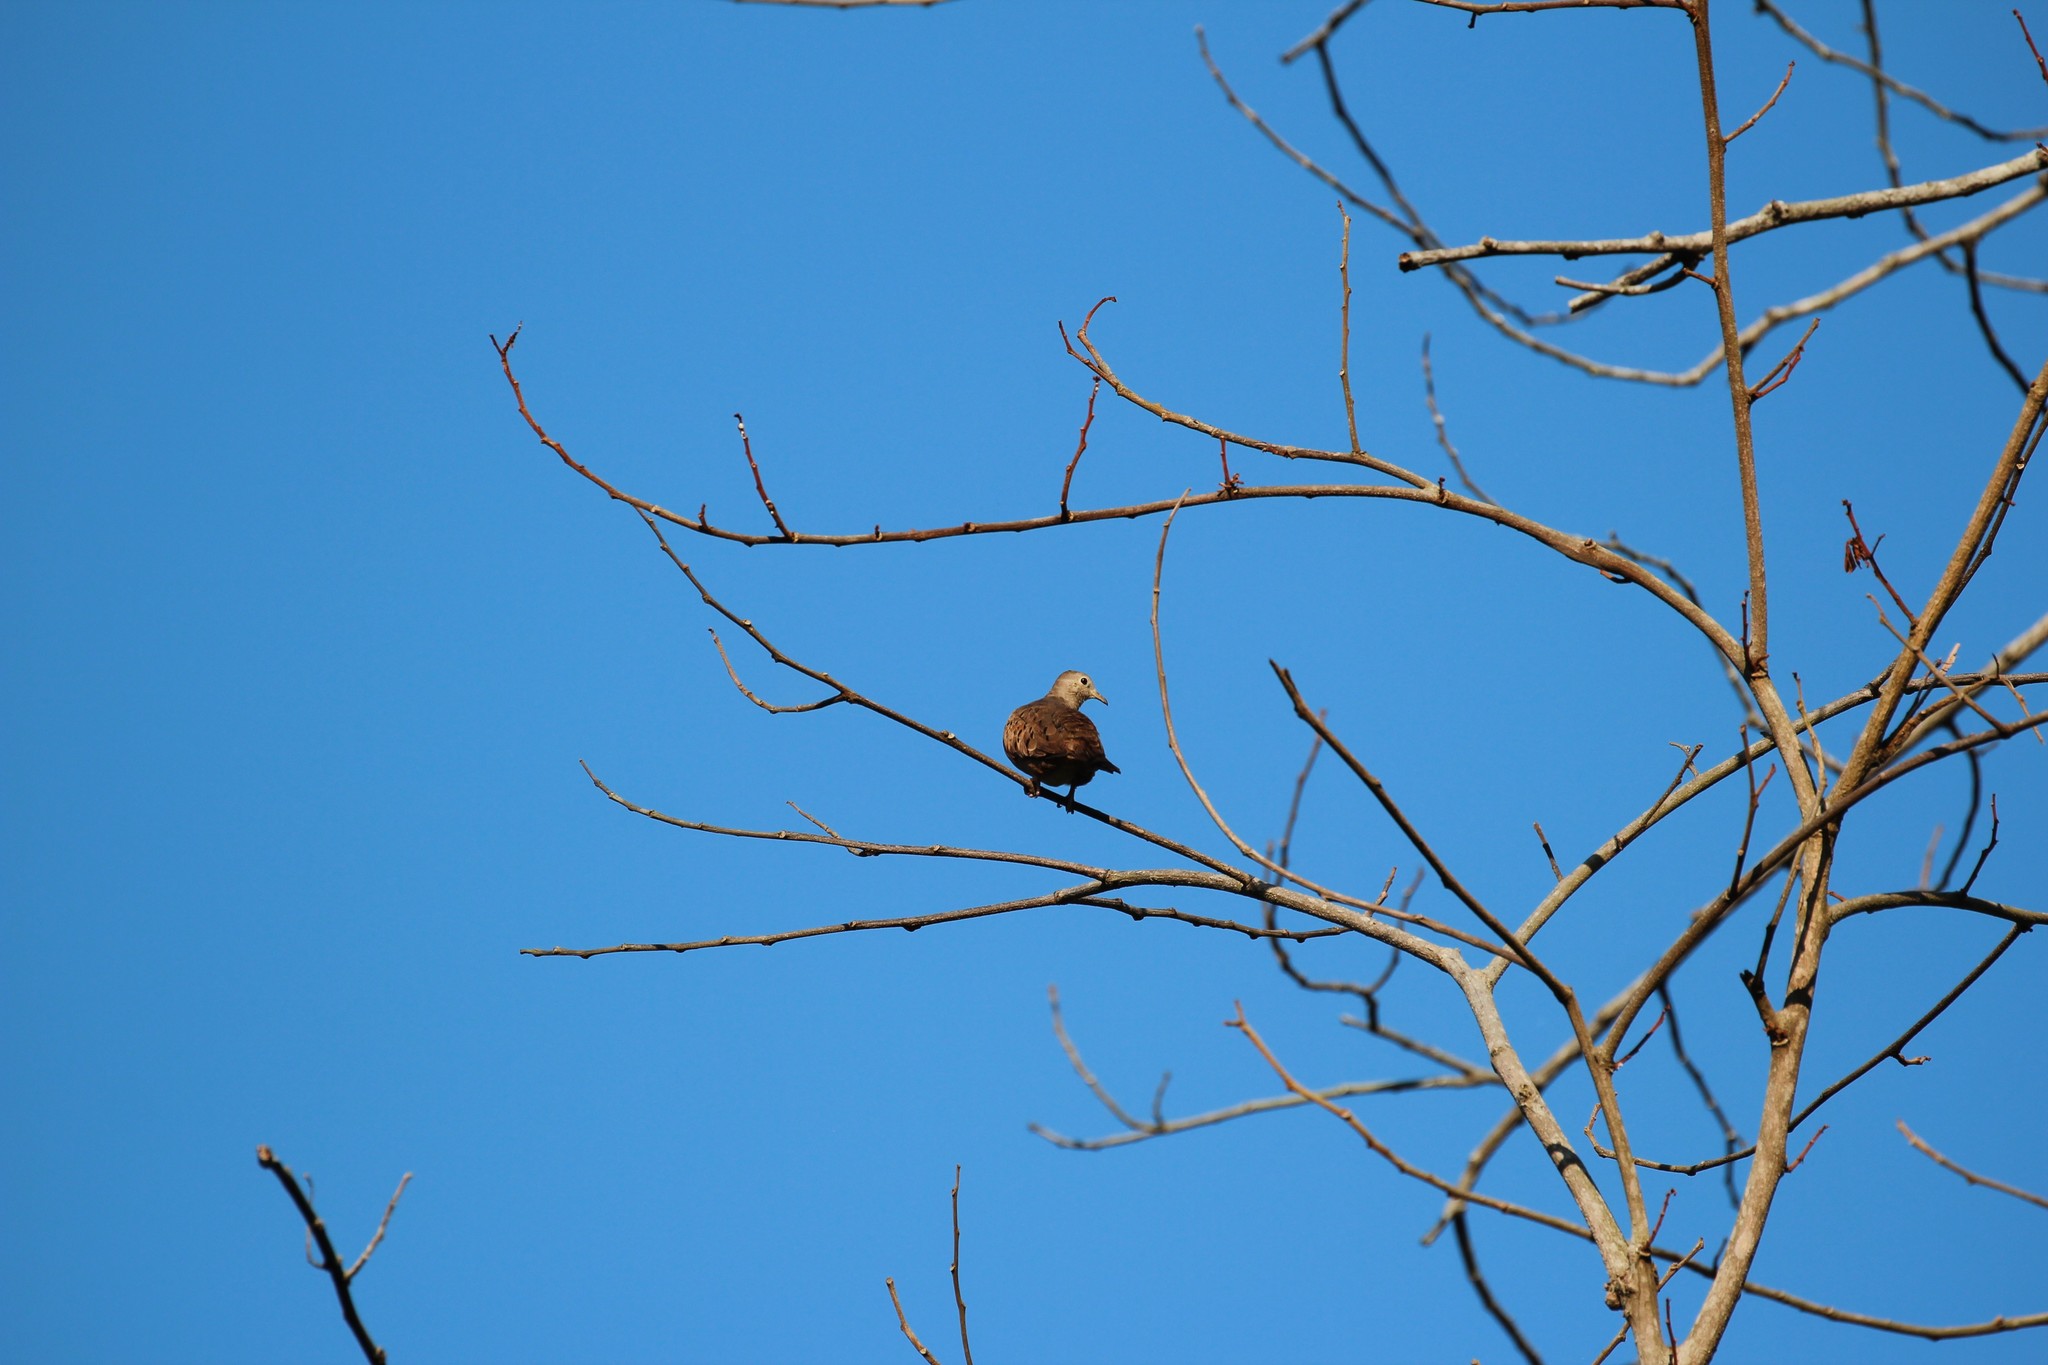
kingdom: Animalia
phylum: Chordata
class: Aves
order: Columbiformes
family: Columbidae
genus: Columbina
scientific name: Columbina talpacoti
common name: Ruddy ground dove
